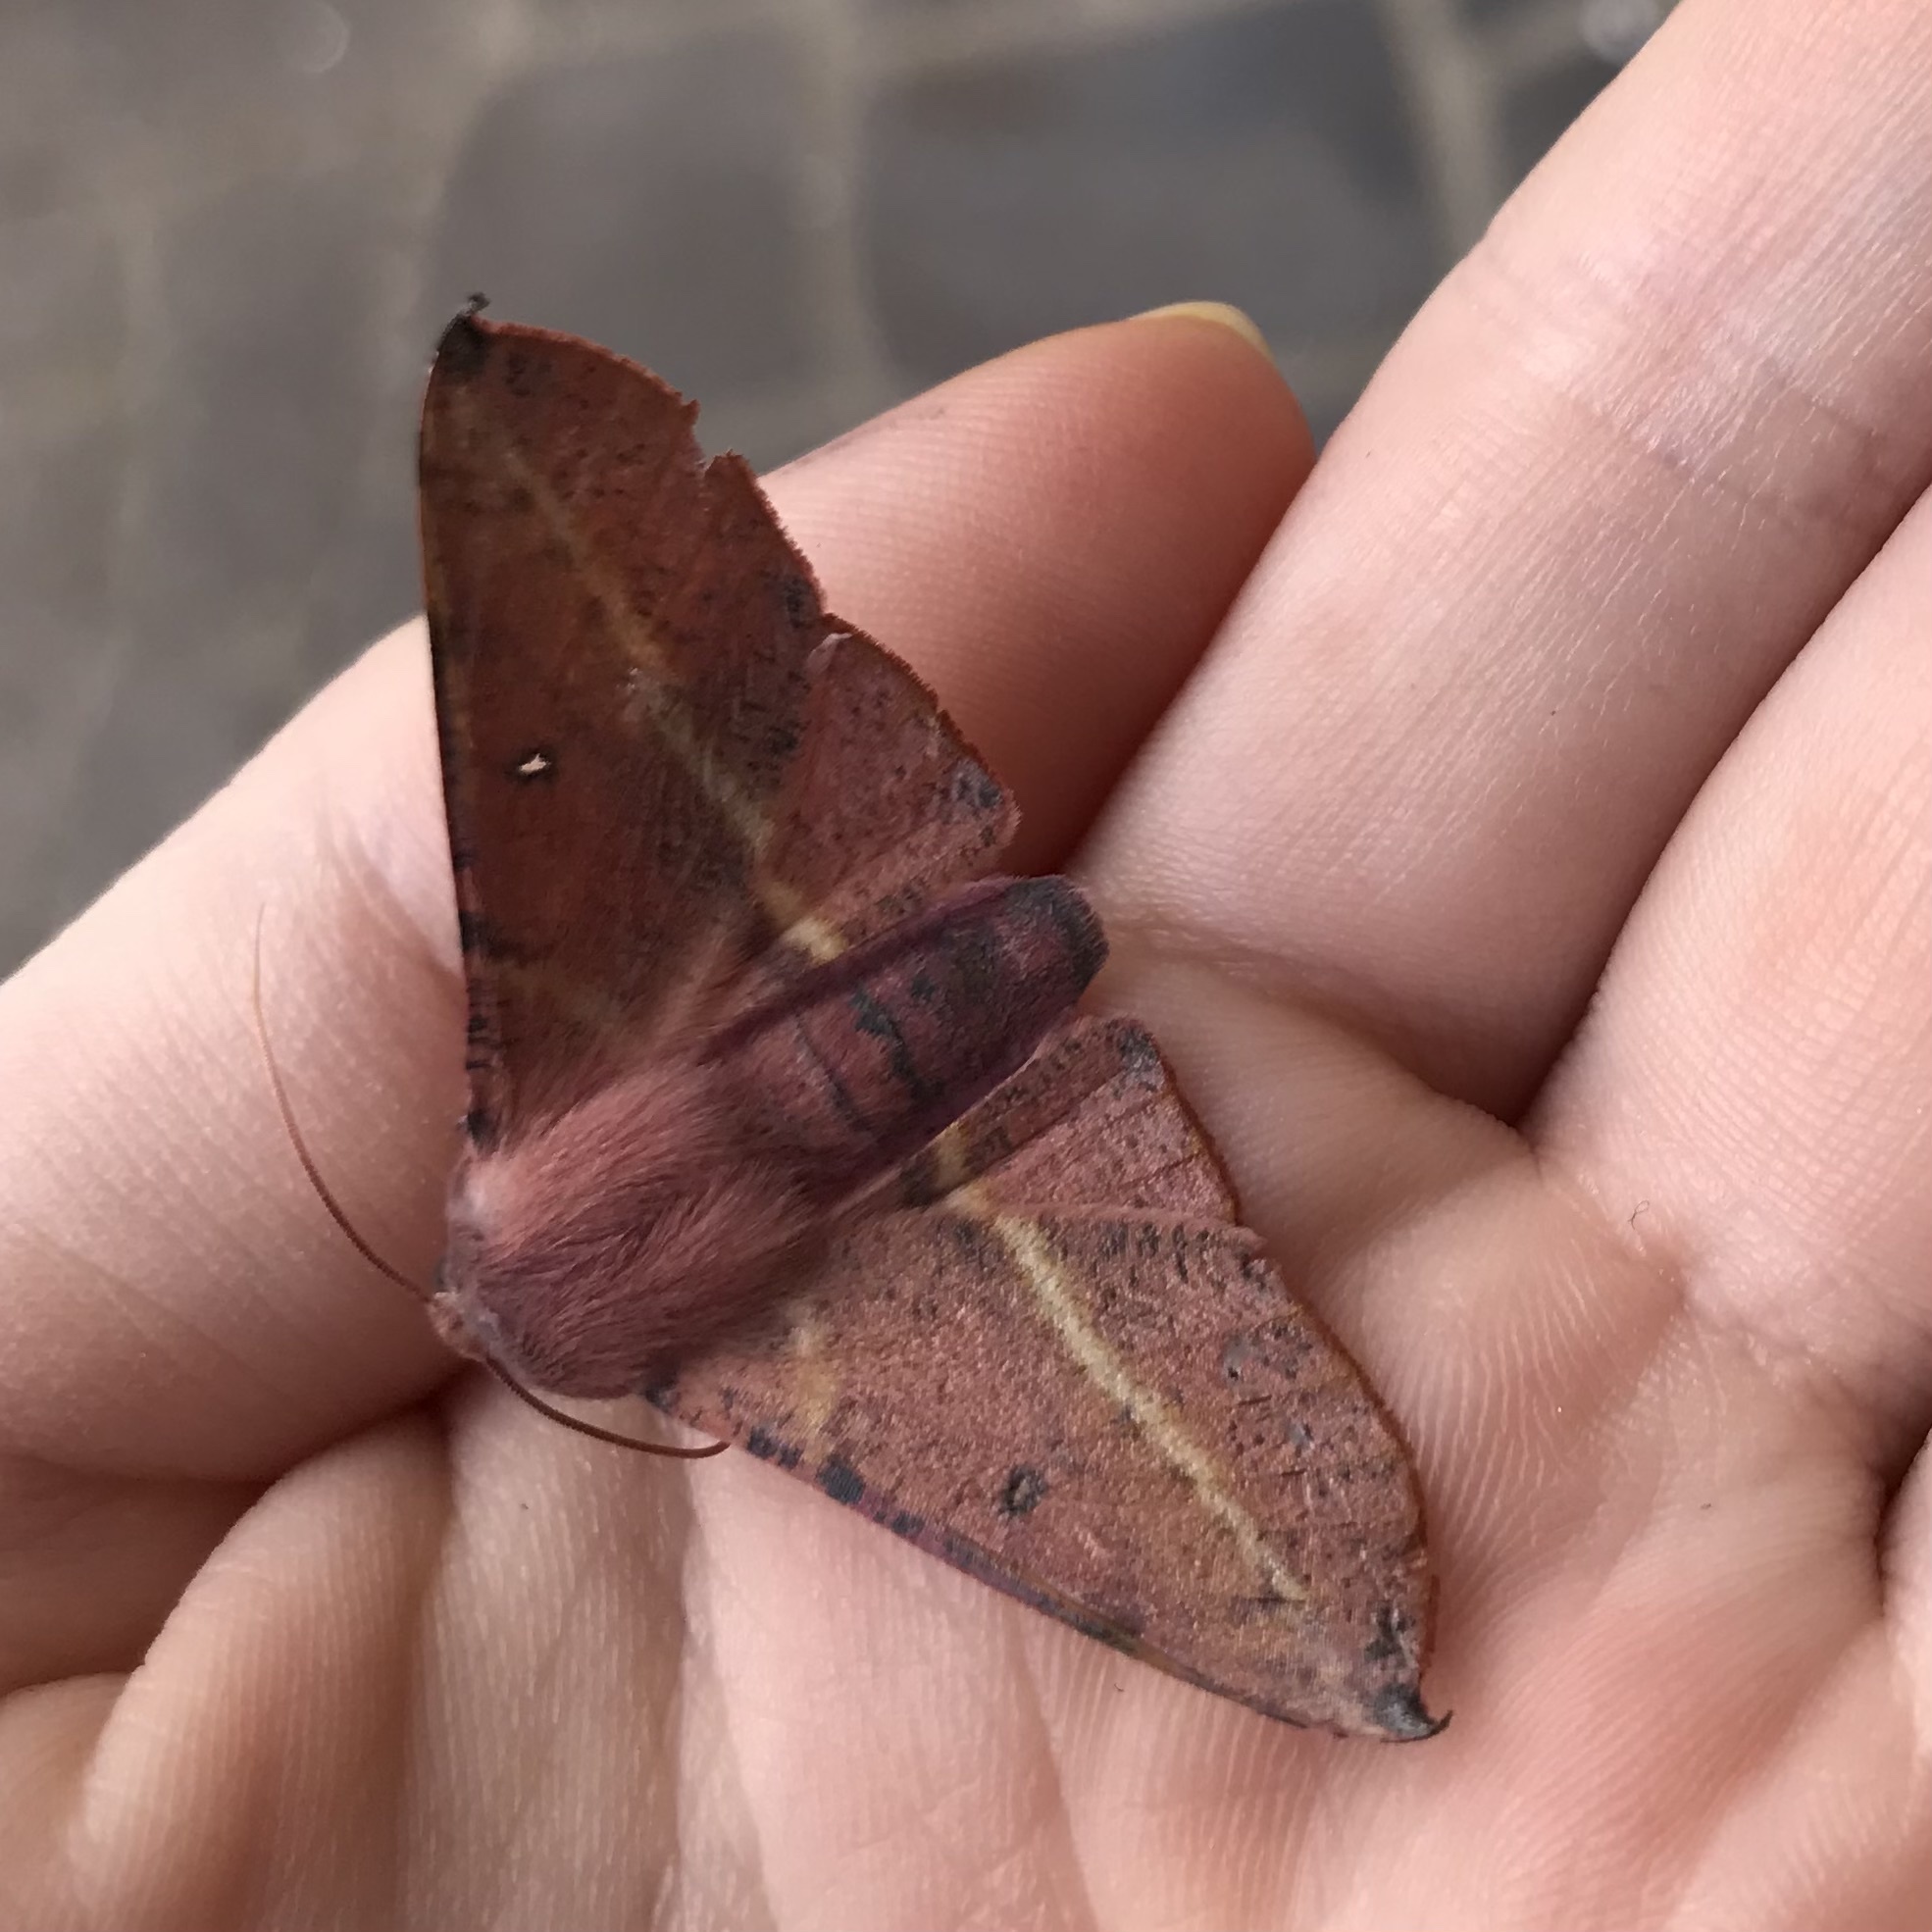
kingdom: Animalia
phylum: Arthropoda
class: Insecta
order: Lepidoptera
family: Geometridae
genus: Oenochroma
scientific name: Oenochroma vinaria
